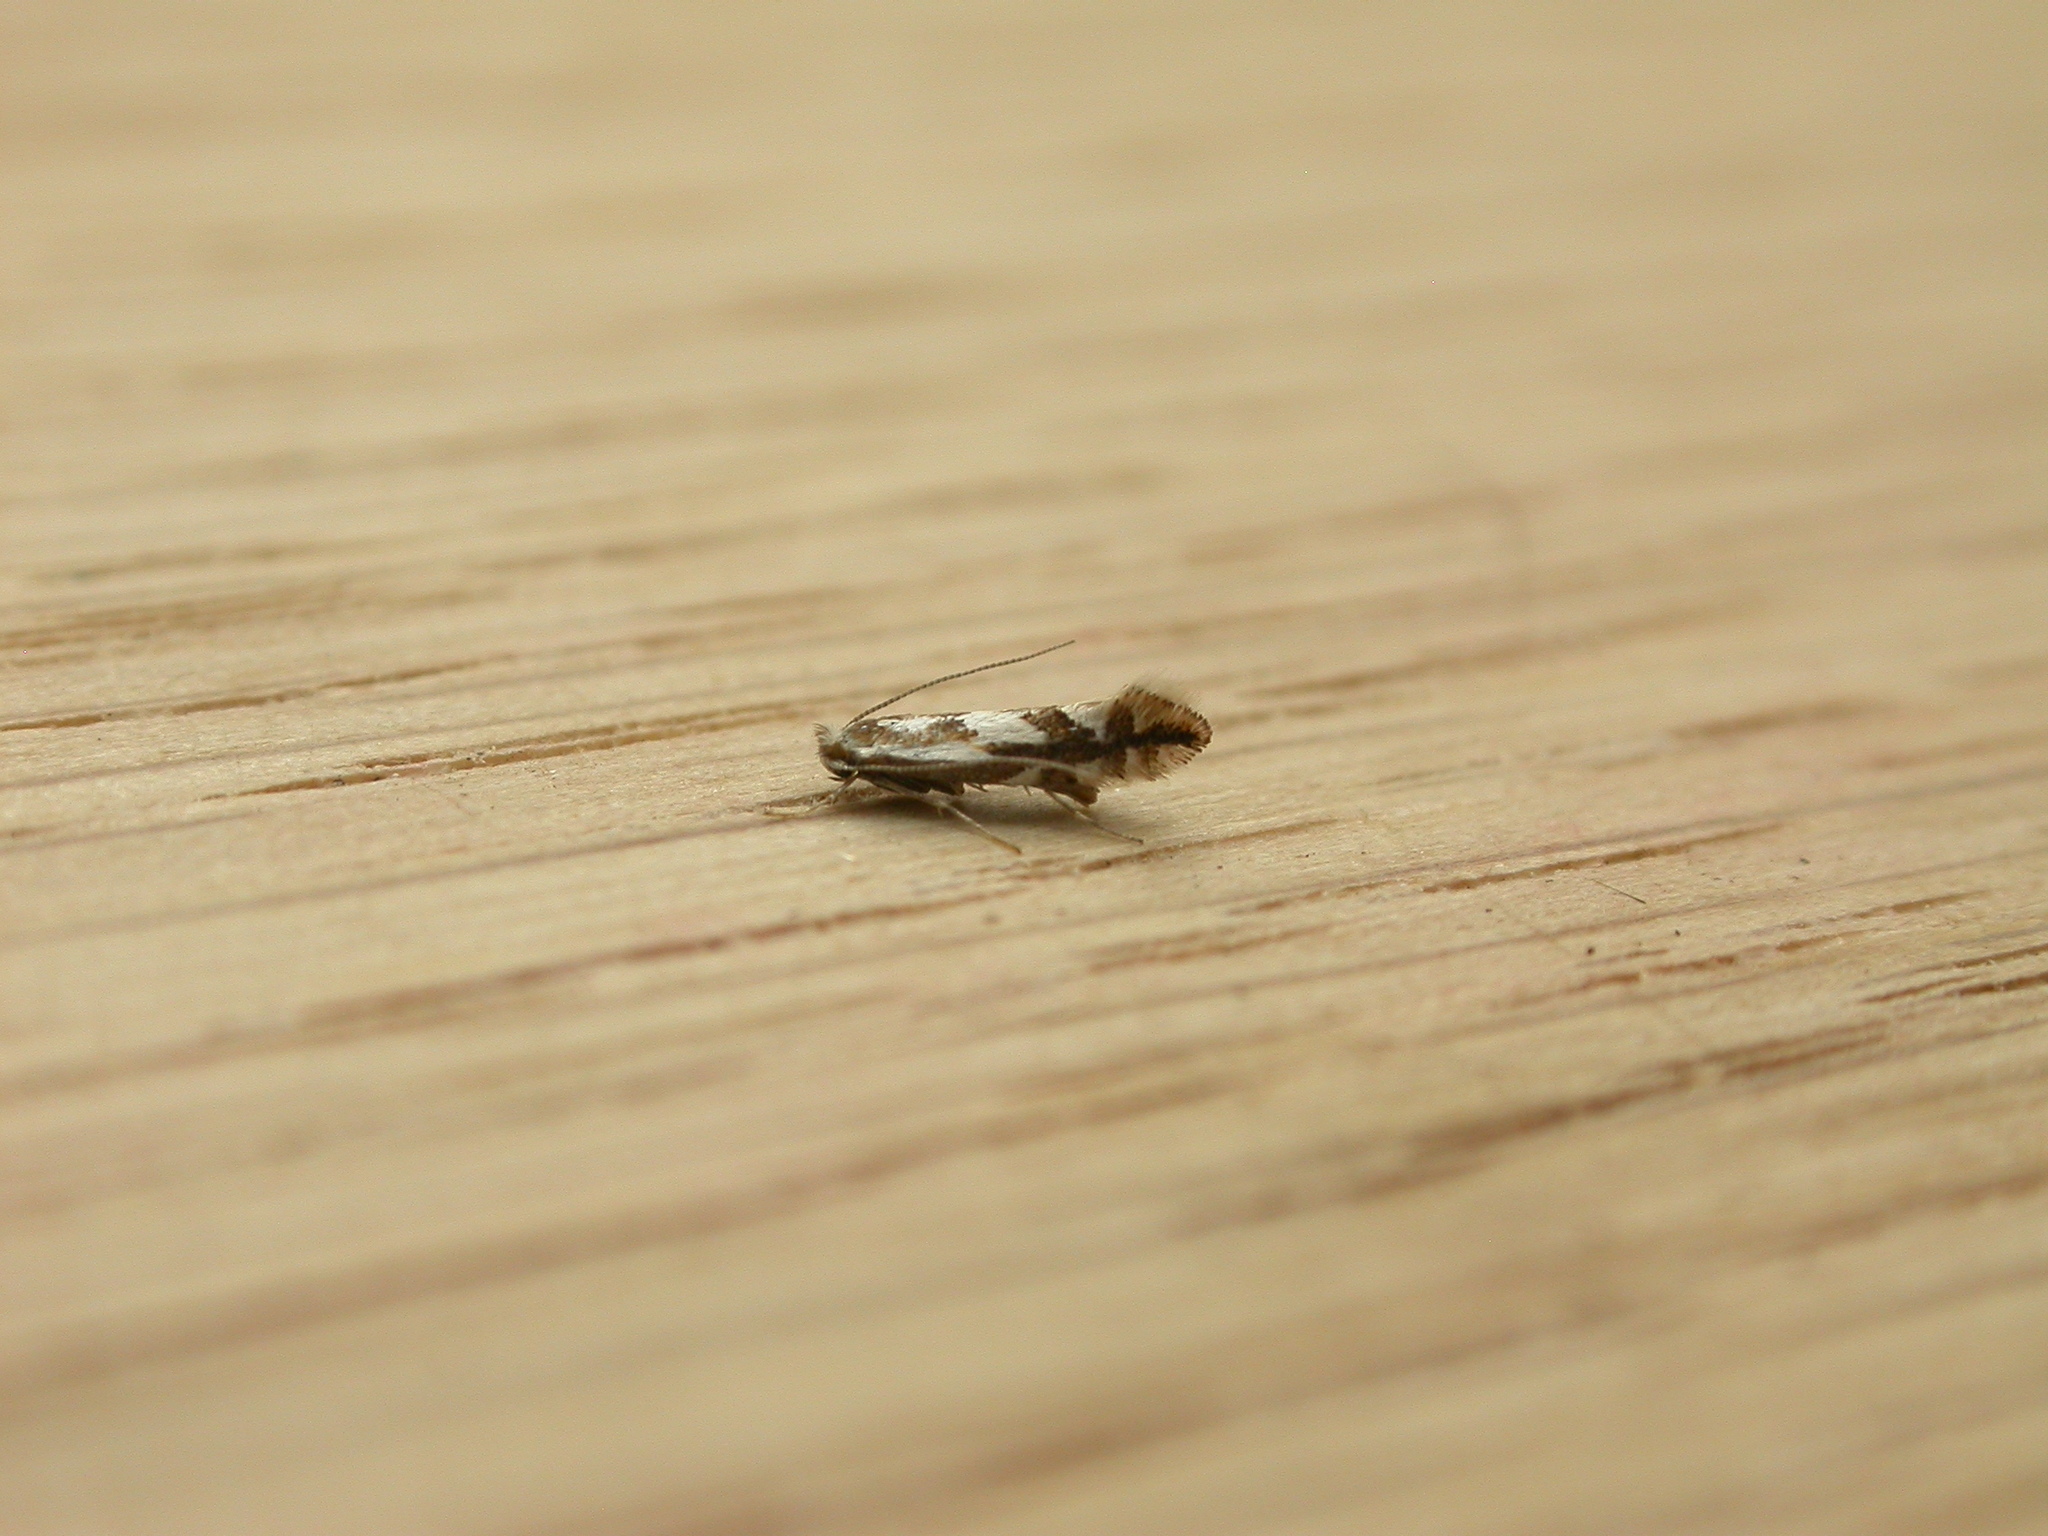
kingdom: Animalia
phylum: Arthropoda
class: Insecta
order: Lepidoptera
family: Gracillariidae
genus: Phyllonorycter
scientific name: Phyllonorycter rajella
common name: Common alder midget
